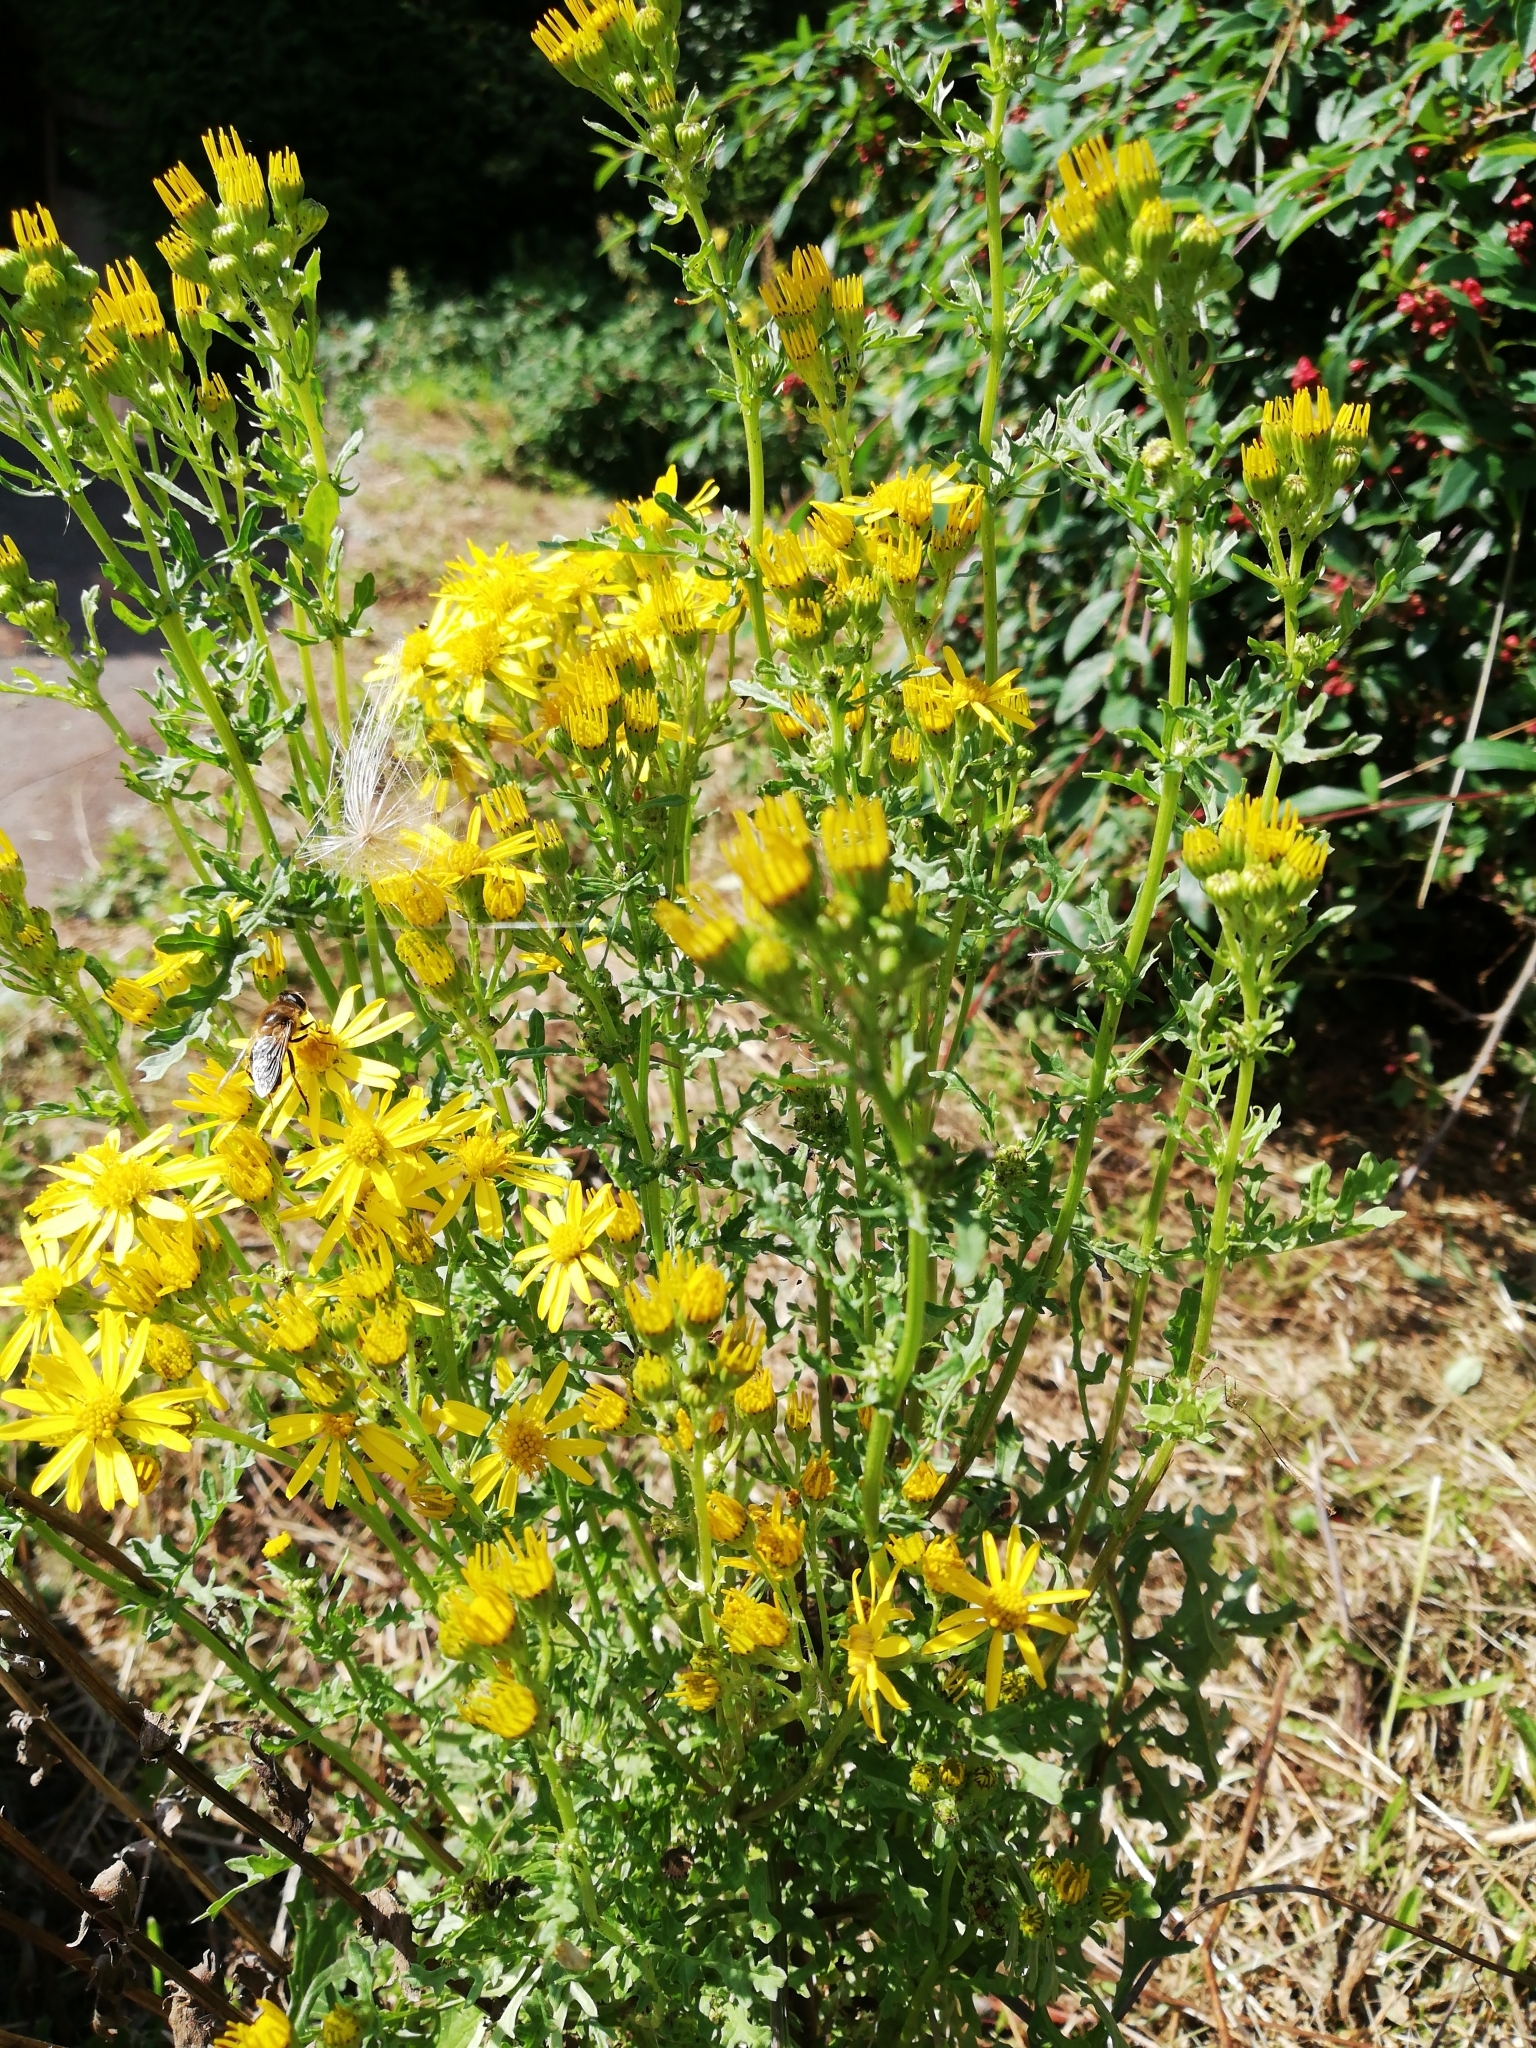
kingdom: Plantae
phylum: Tracheophyta
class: Magnoliopsida
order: Asterales
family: Asteraceae
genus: Jacobaea
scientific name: Jacobaea vulgaris
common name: Stinking willie
